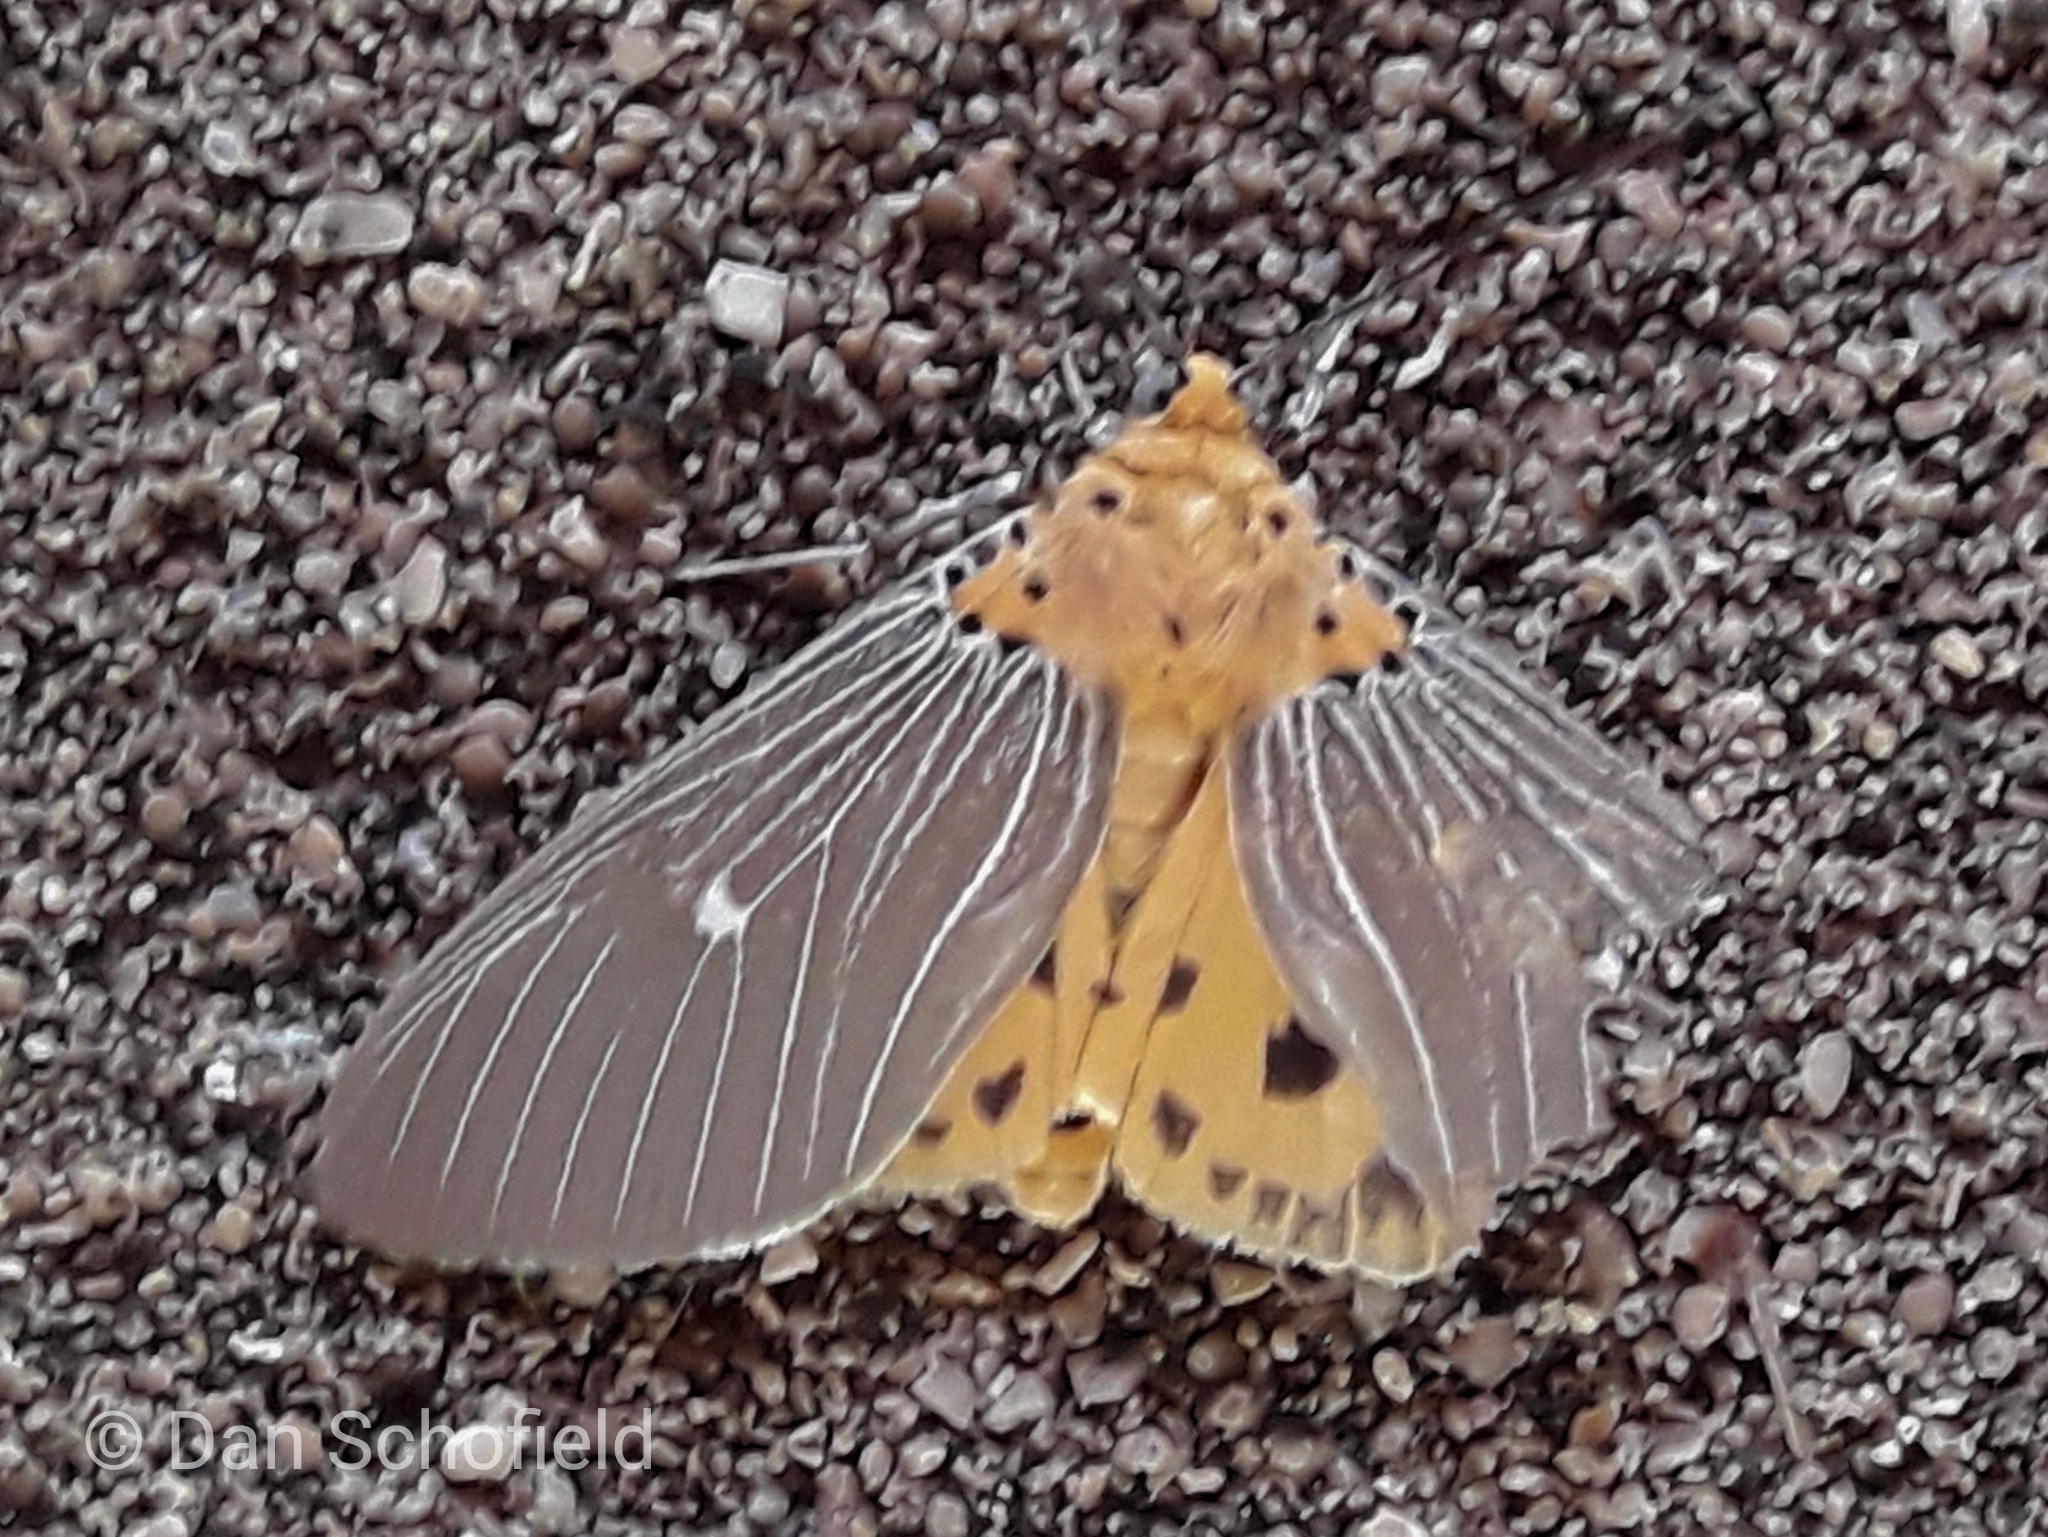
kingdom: Animalia
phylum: Arthropoda
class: Insecta
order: Lepidoptera
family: Erebidae
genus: Asota
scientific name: Asota caricae
